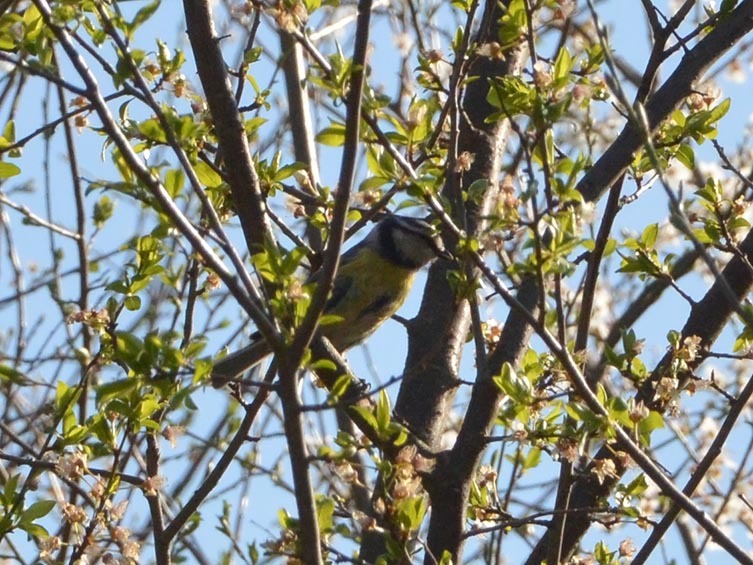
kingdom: Animalia
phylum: Chordata
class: Aves
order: Passeriformes
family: Paridae
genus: Cyanistes
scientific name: Cyanistes caeruleus
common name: Eurasian blue tit
